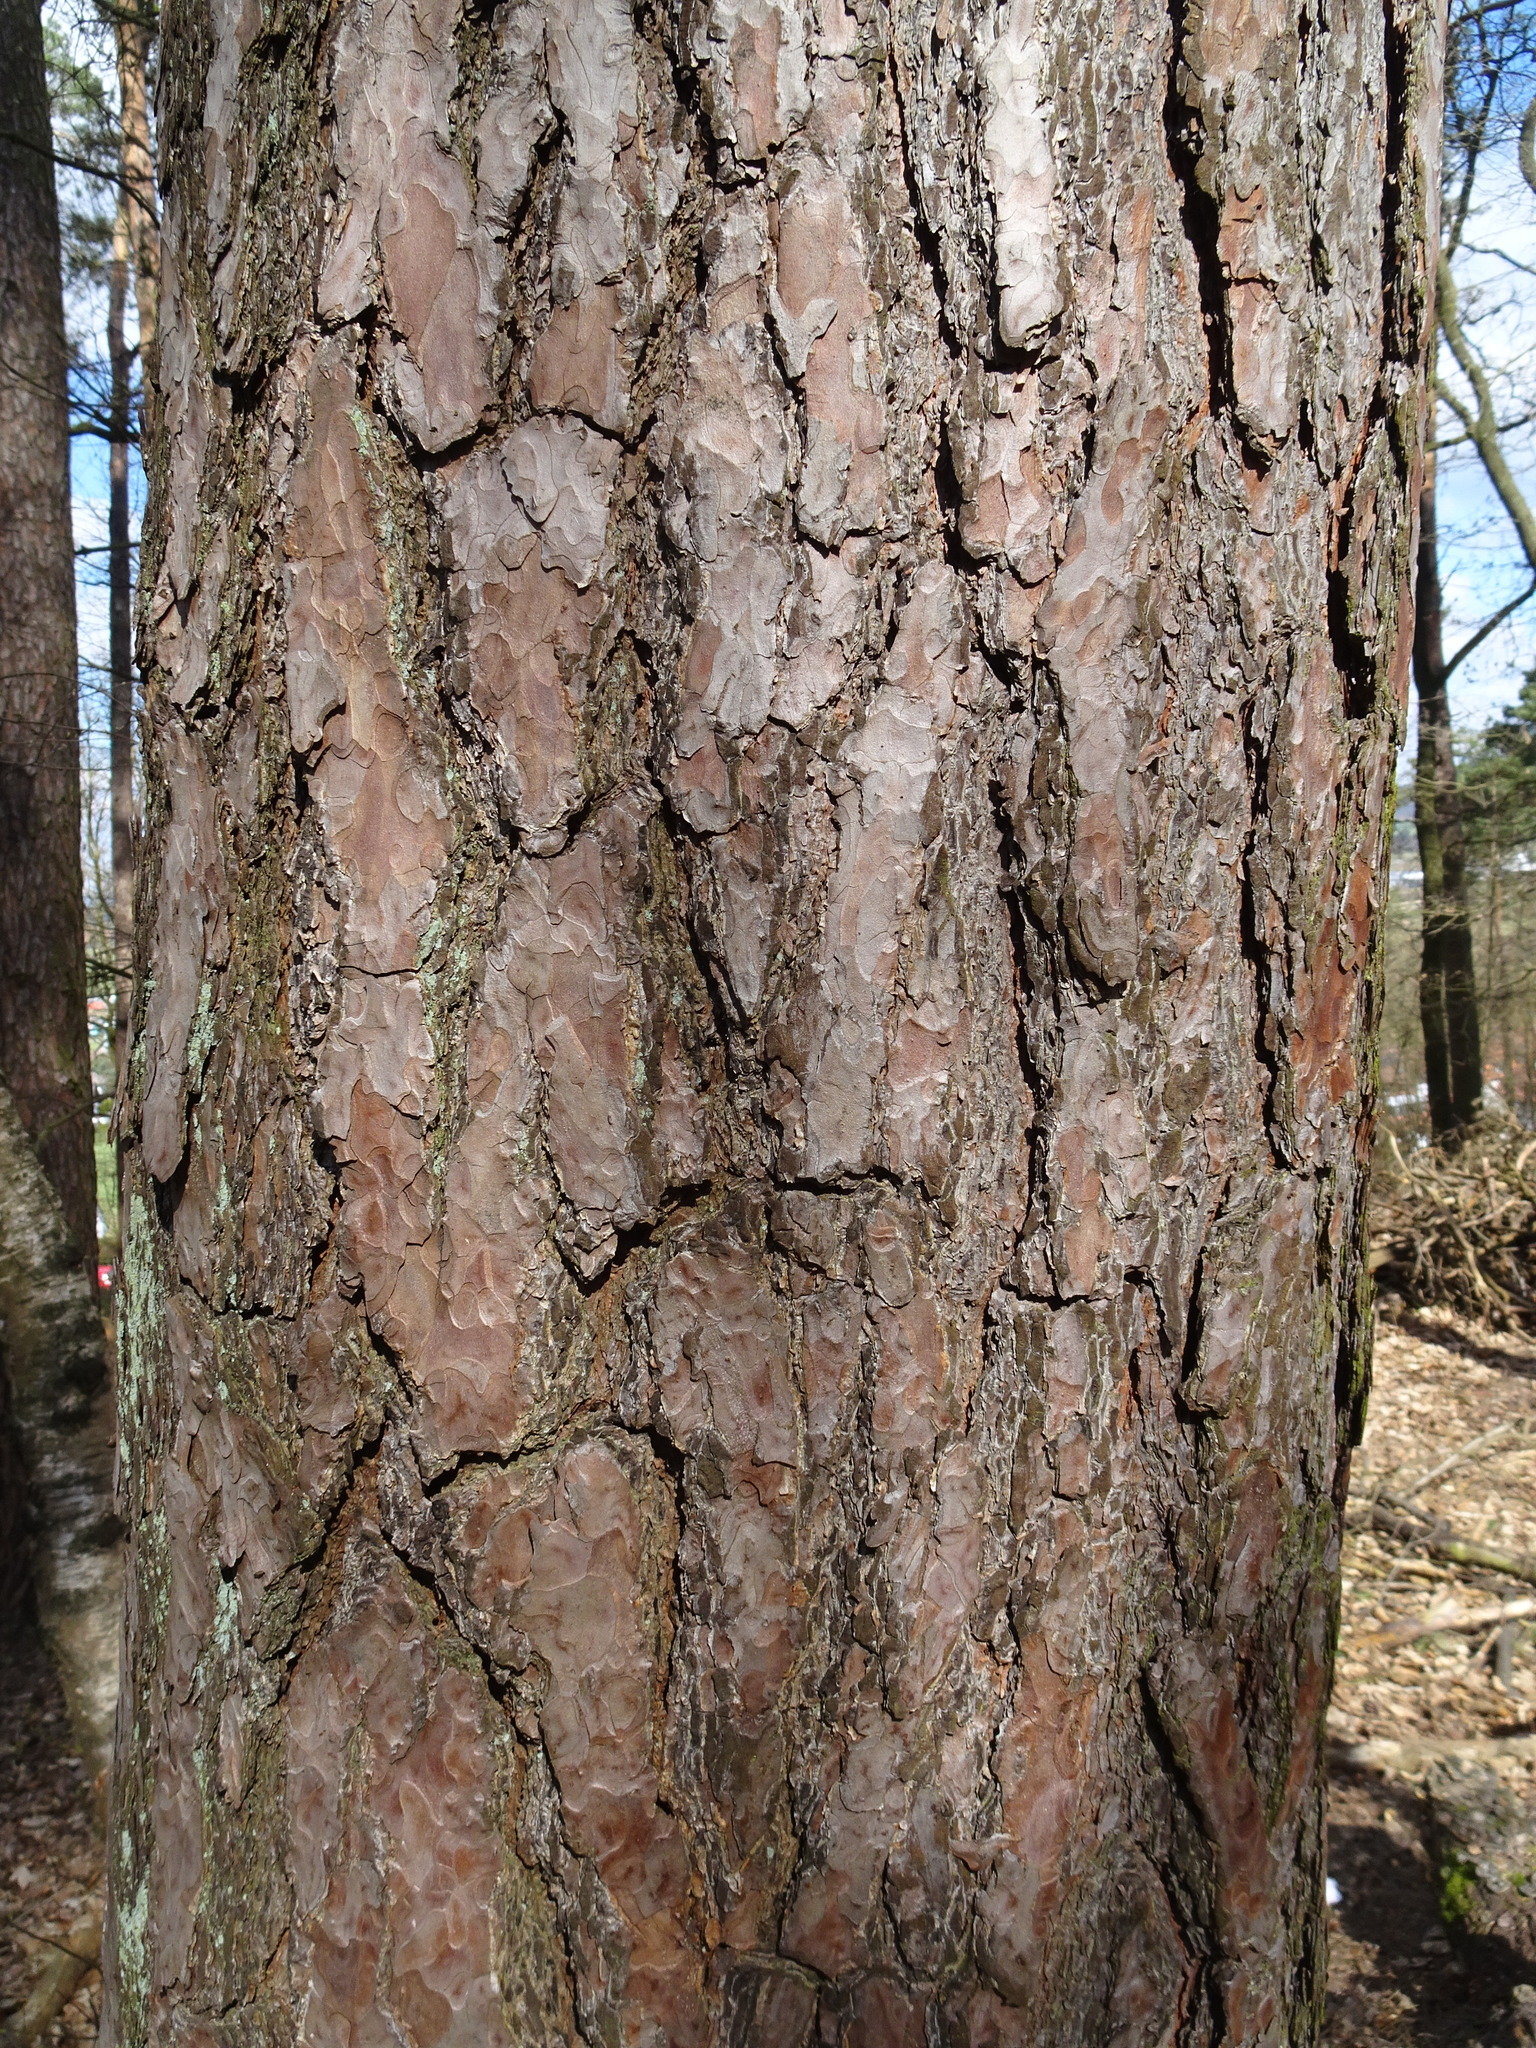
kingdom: Plantae
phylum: Tracheophyta
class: Pinopsida
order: Pinales
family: Pinaceae
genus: Pinus
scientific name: Pinus sylvestris
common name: Scots pine
